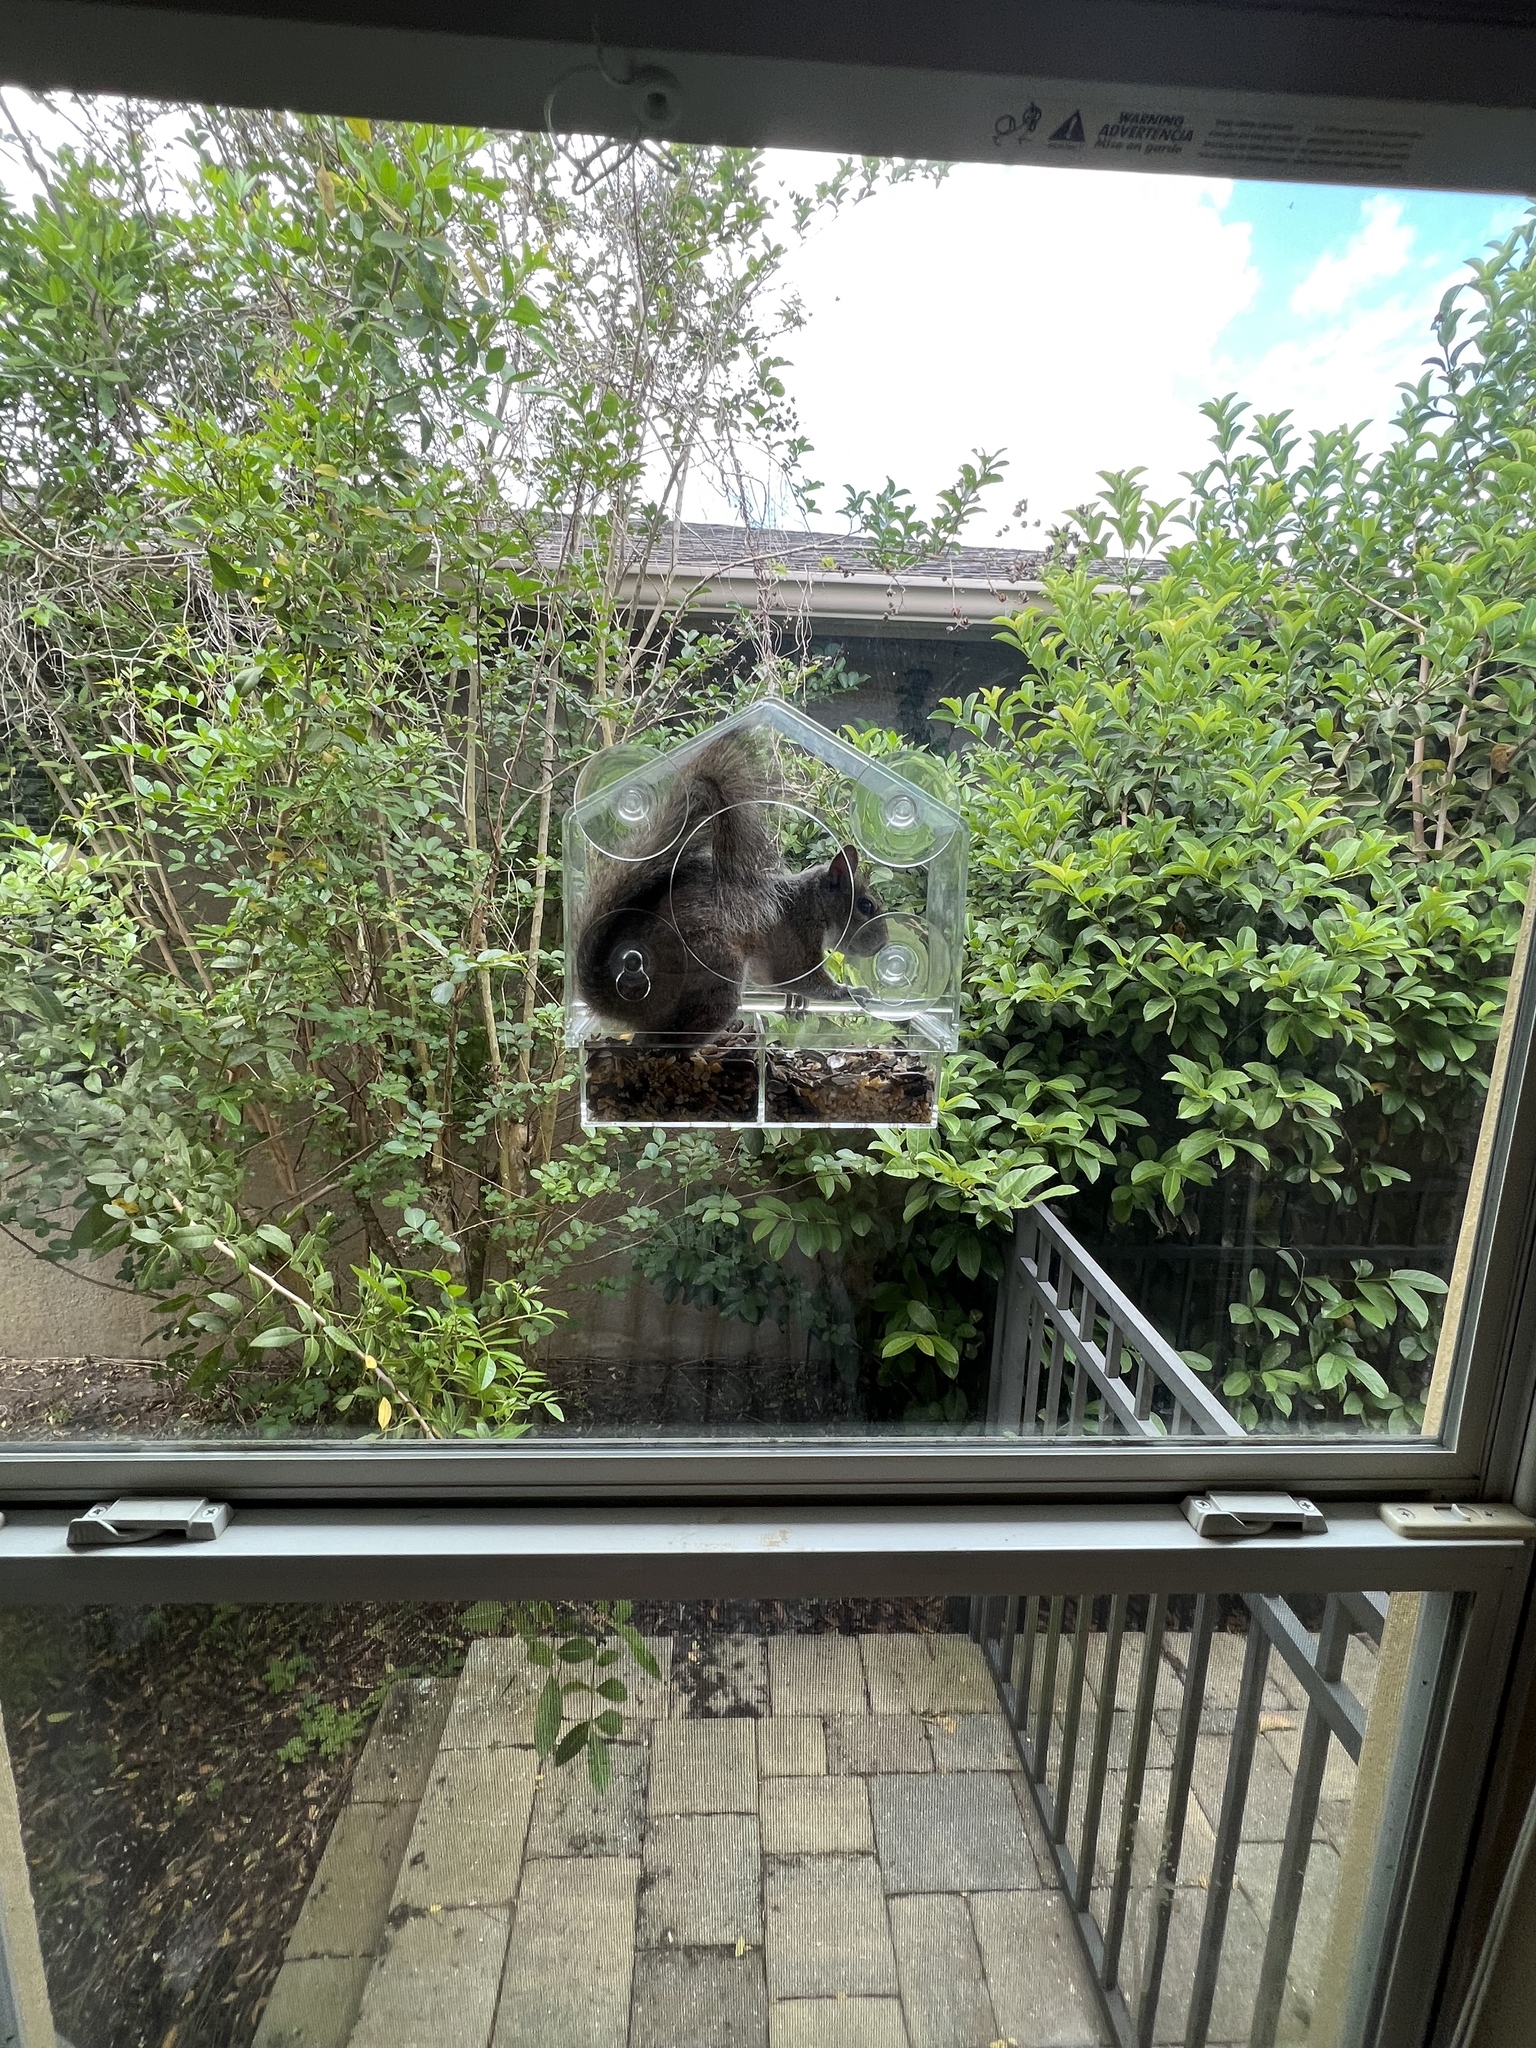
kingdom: Animalia
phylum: Chordata
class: Mammalia
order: Rodentia
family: Sciuridae
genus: Sciurus
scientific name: Sciurus carolinensis
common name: Eastern gray squirrel
